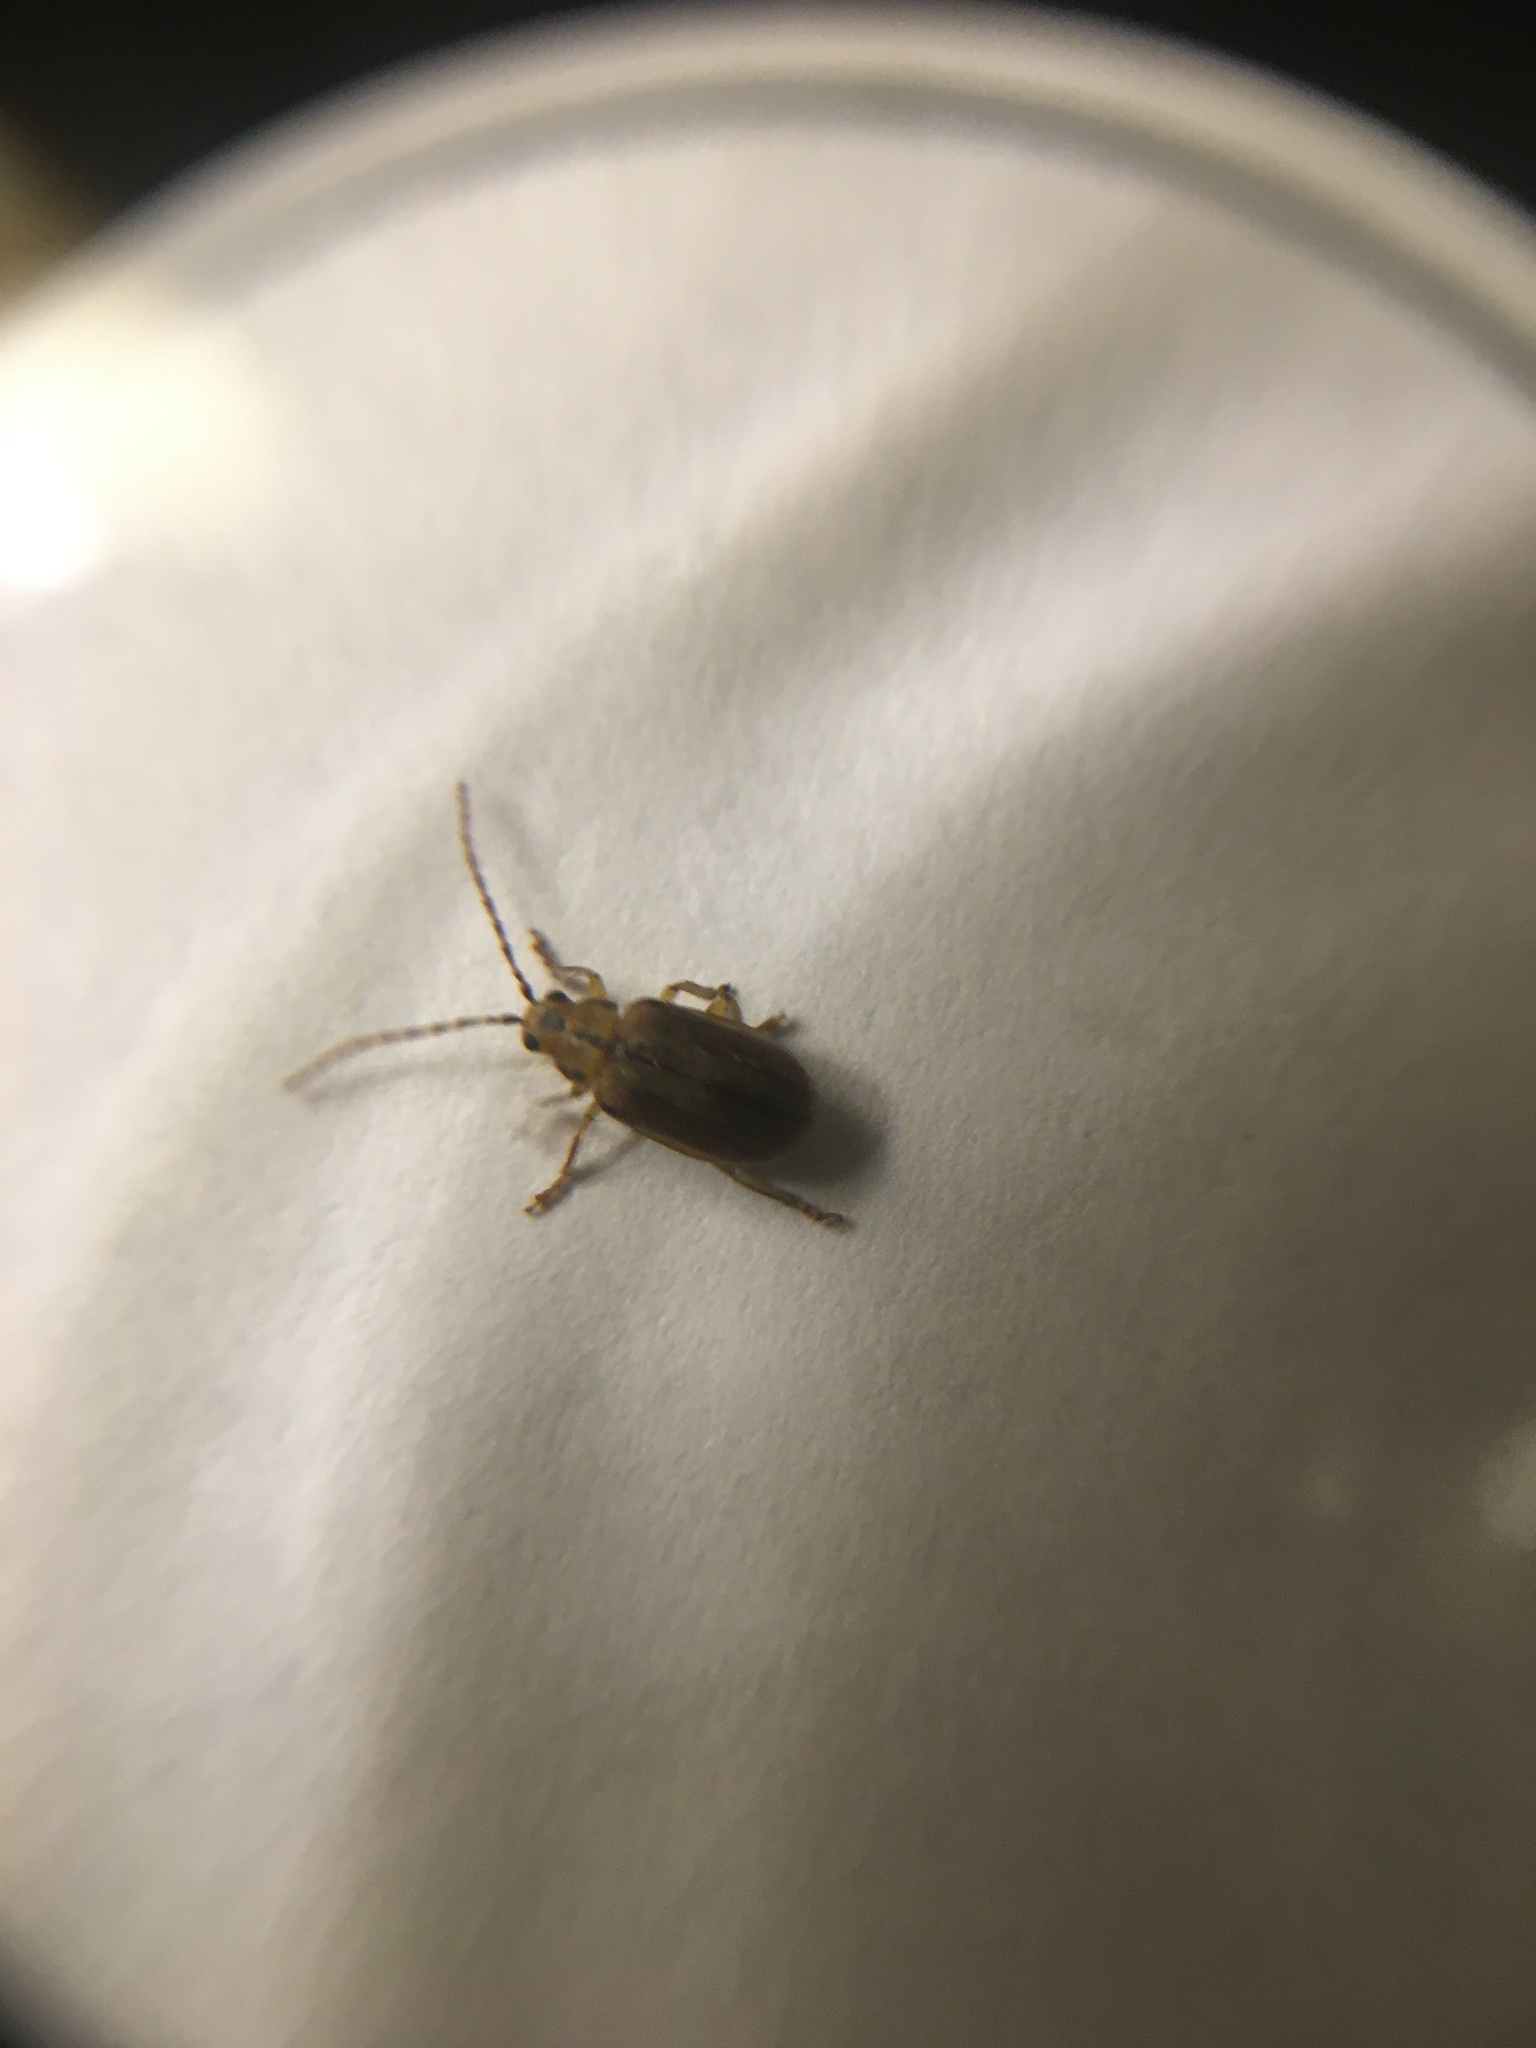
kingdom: Animalia
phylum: Arthropoda
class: Insecta
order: Coleoptera
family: Chrysomelidae
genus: Pyrrhalta
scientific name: Pyrrhalta viburni
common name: Guelder-rose leaf beetle
